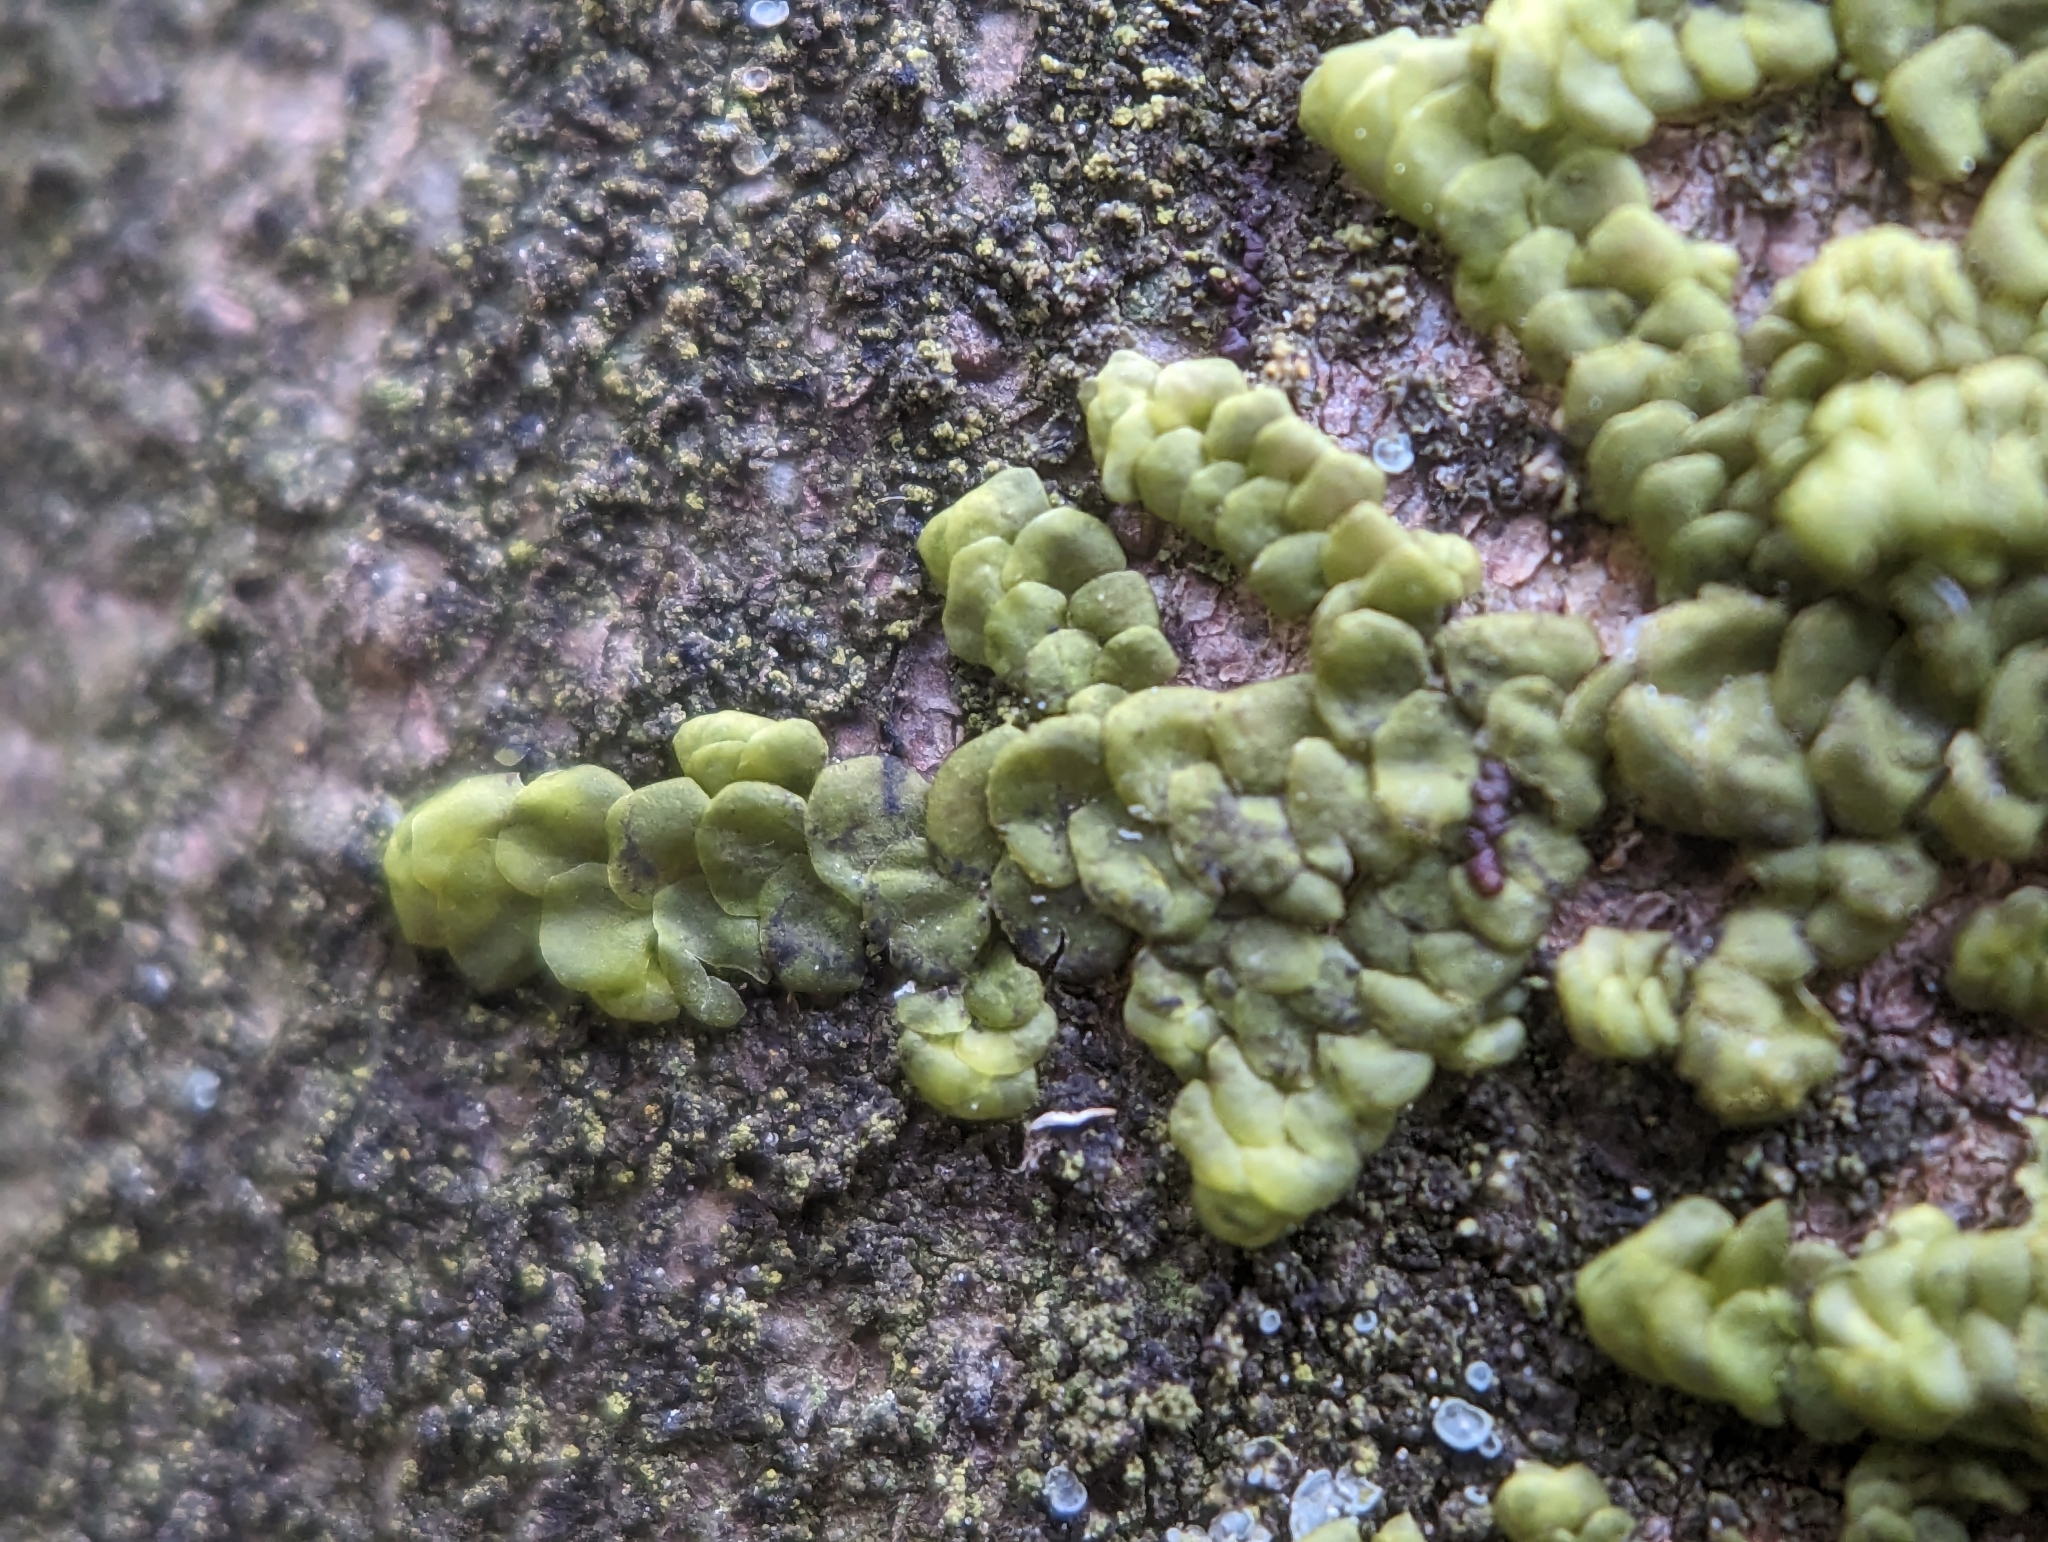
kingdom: Plantae
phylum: Marchantiophyta
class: Jungermanniopsida
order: Porellales
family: Radulaceae
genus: Radula
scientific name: Radula complanata
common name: Flat-leaved scalewort
